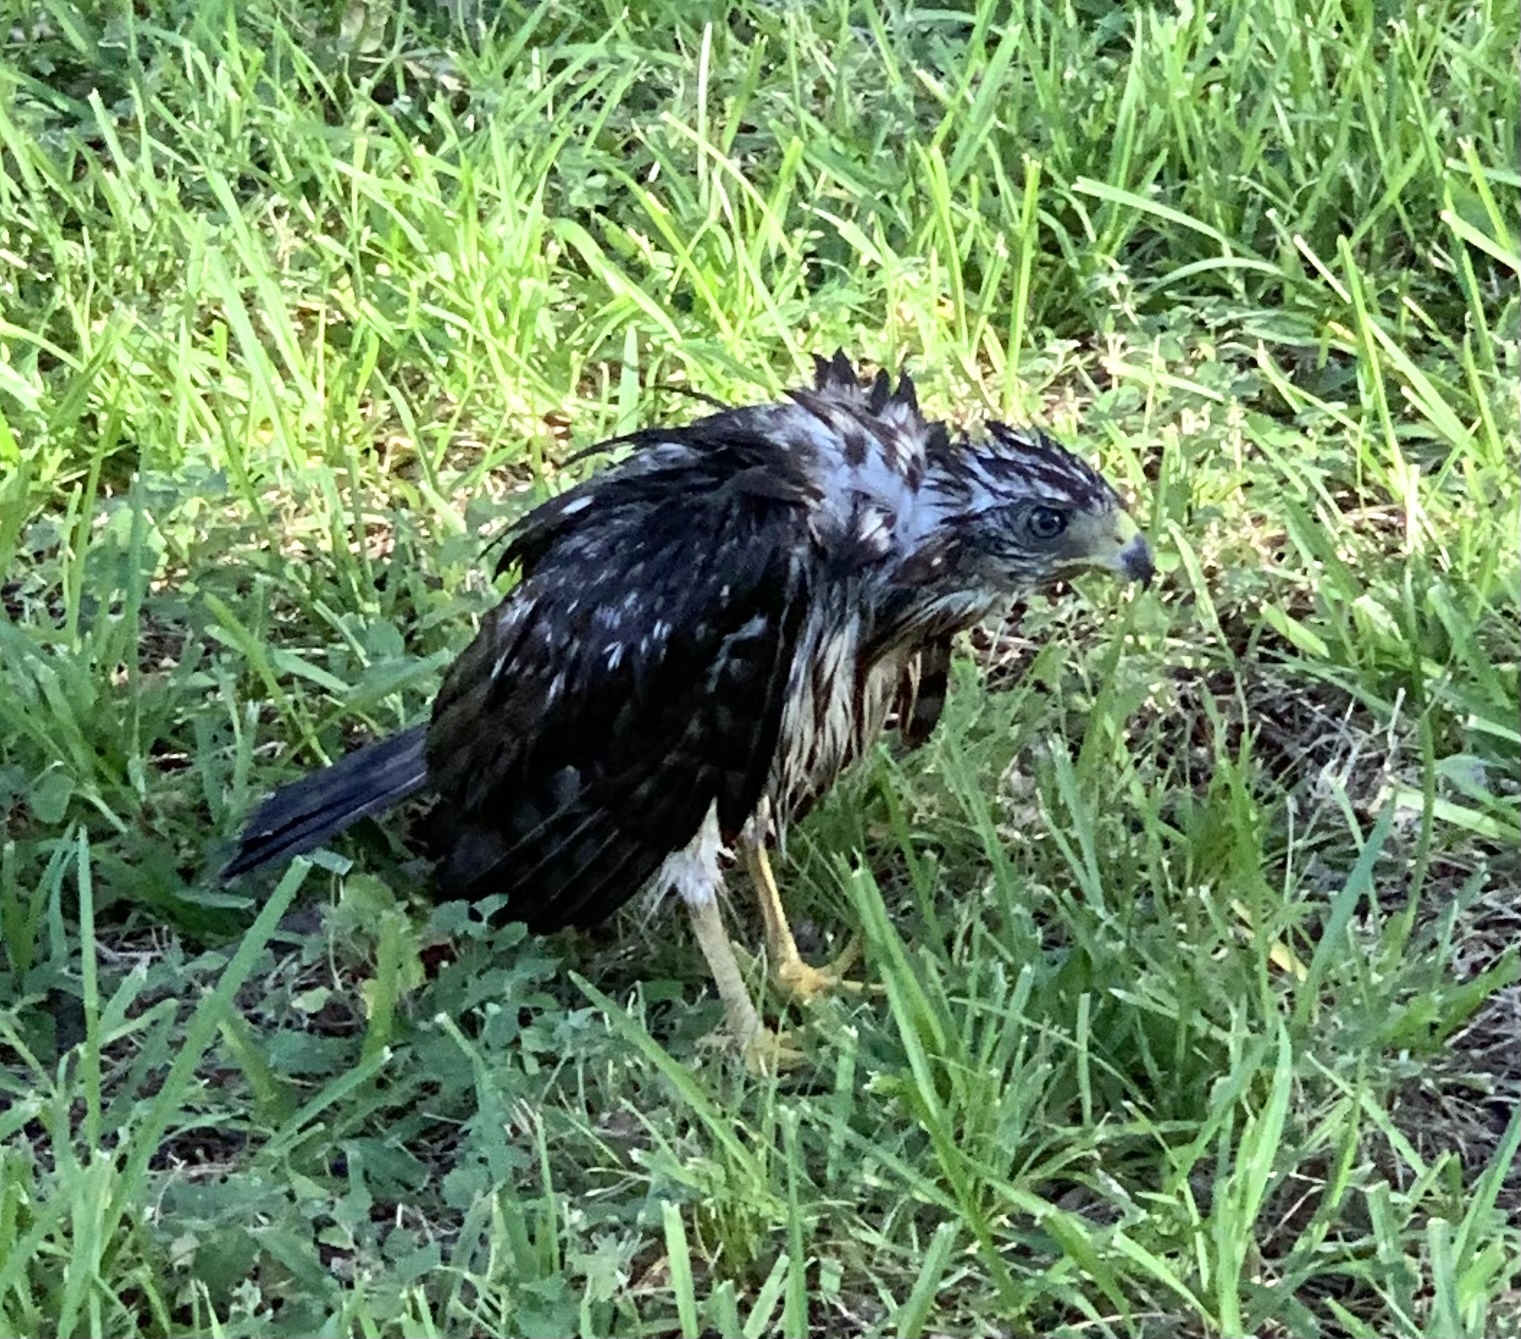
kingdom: Animalia
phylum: Chordata
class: Aves
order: Accipitriformes
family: Accipitridae
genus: Accipiter
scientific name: Accipiter cooperii
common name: Cooper's hawk
